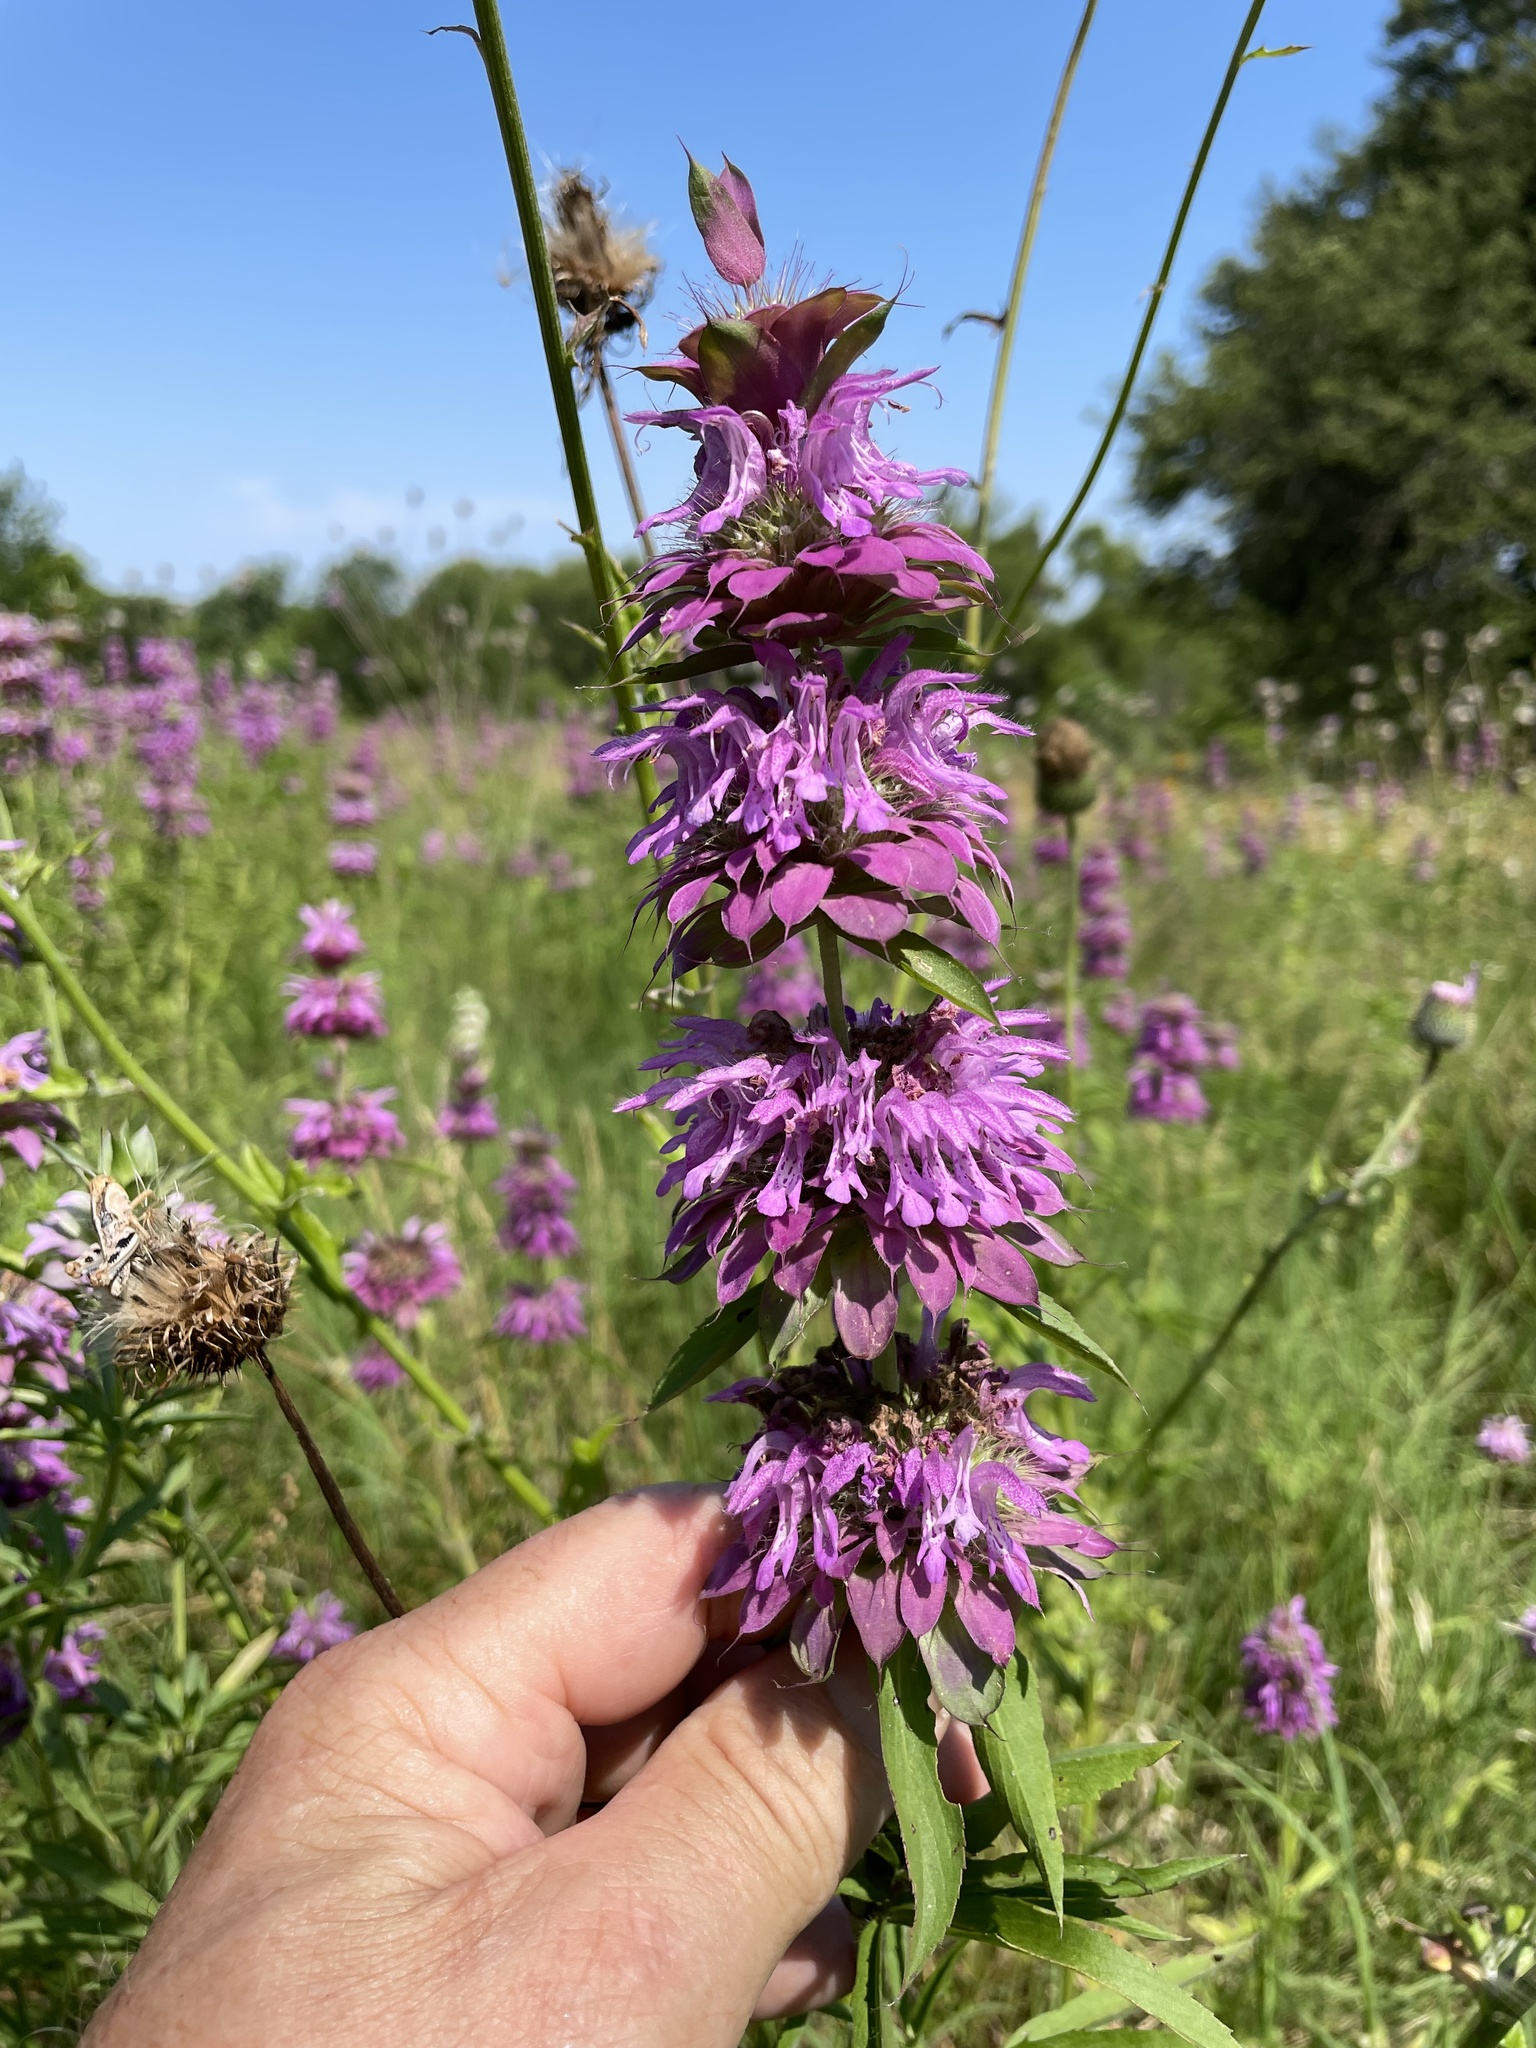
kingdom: Plantae
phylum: Tracheophyta
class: Magnoliopsida
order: Lamiales
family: Lamiaceae
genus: Monarda
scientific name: Monarda citriodora
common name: Lemon beebalm
